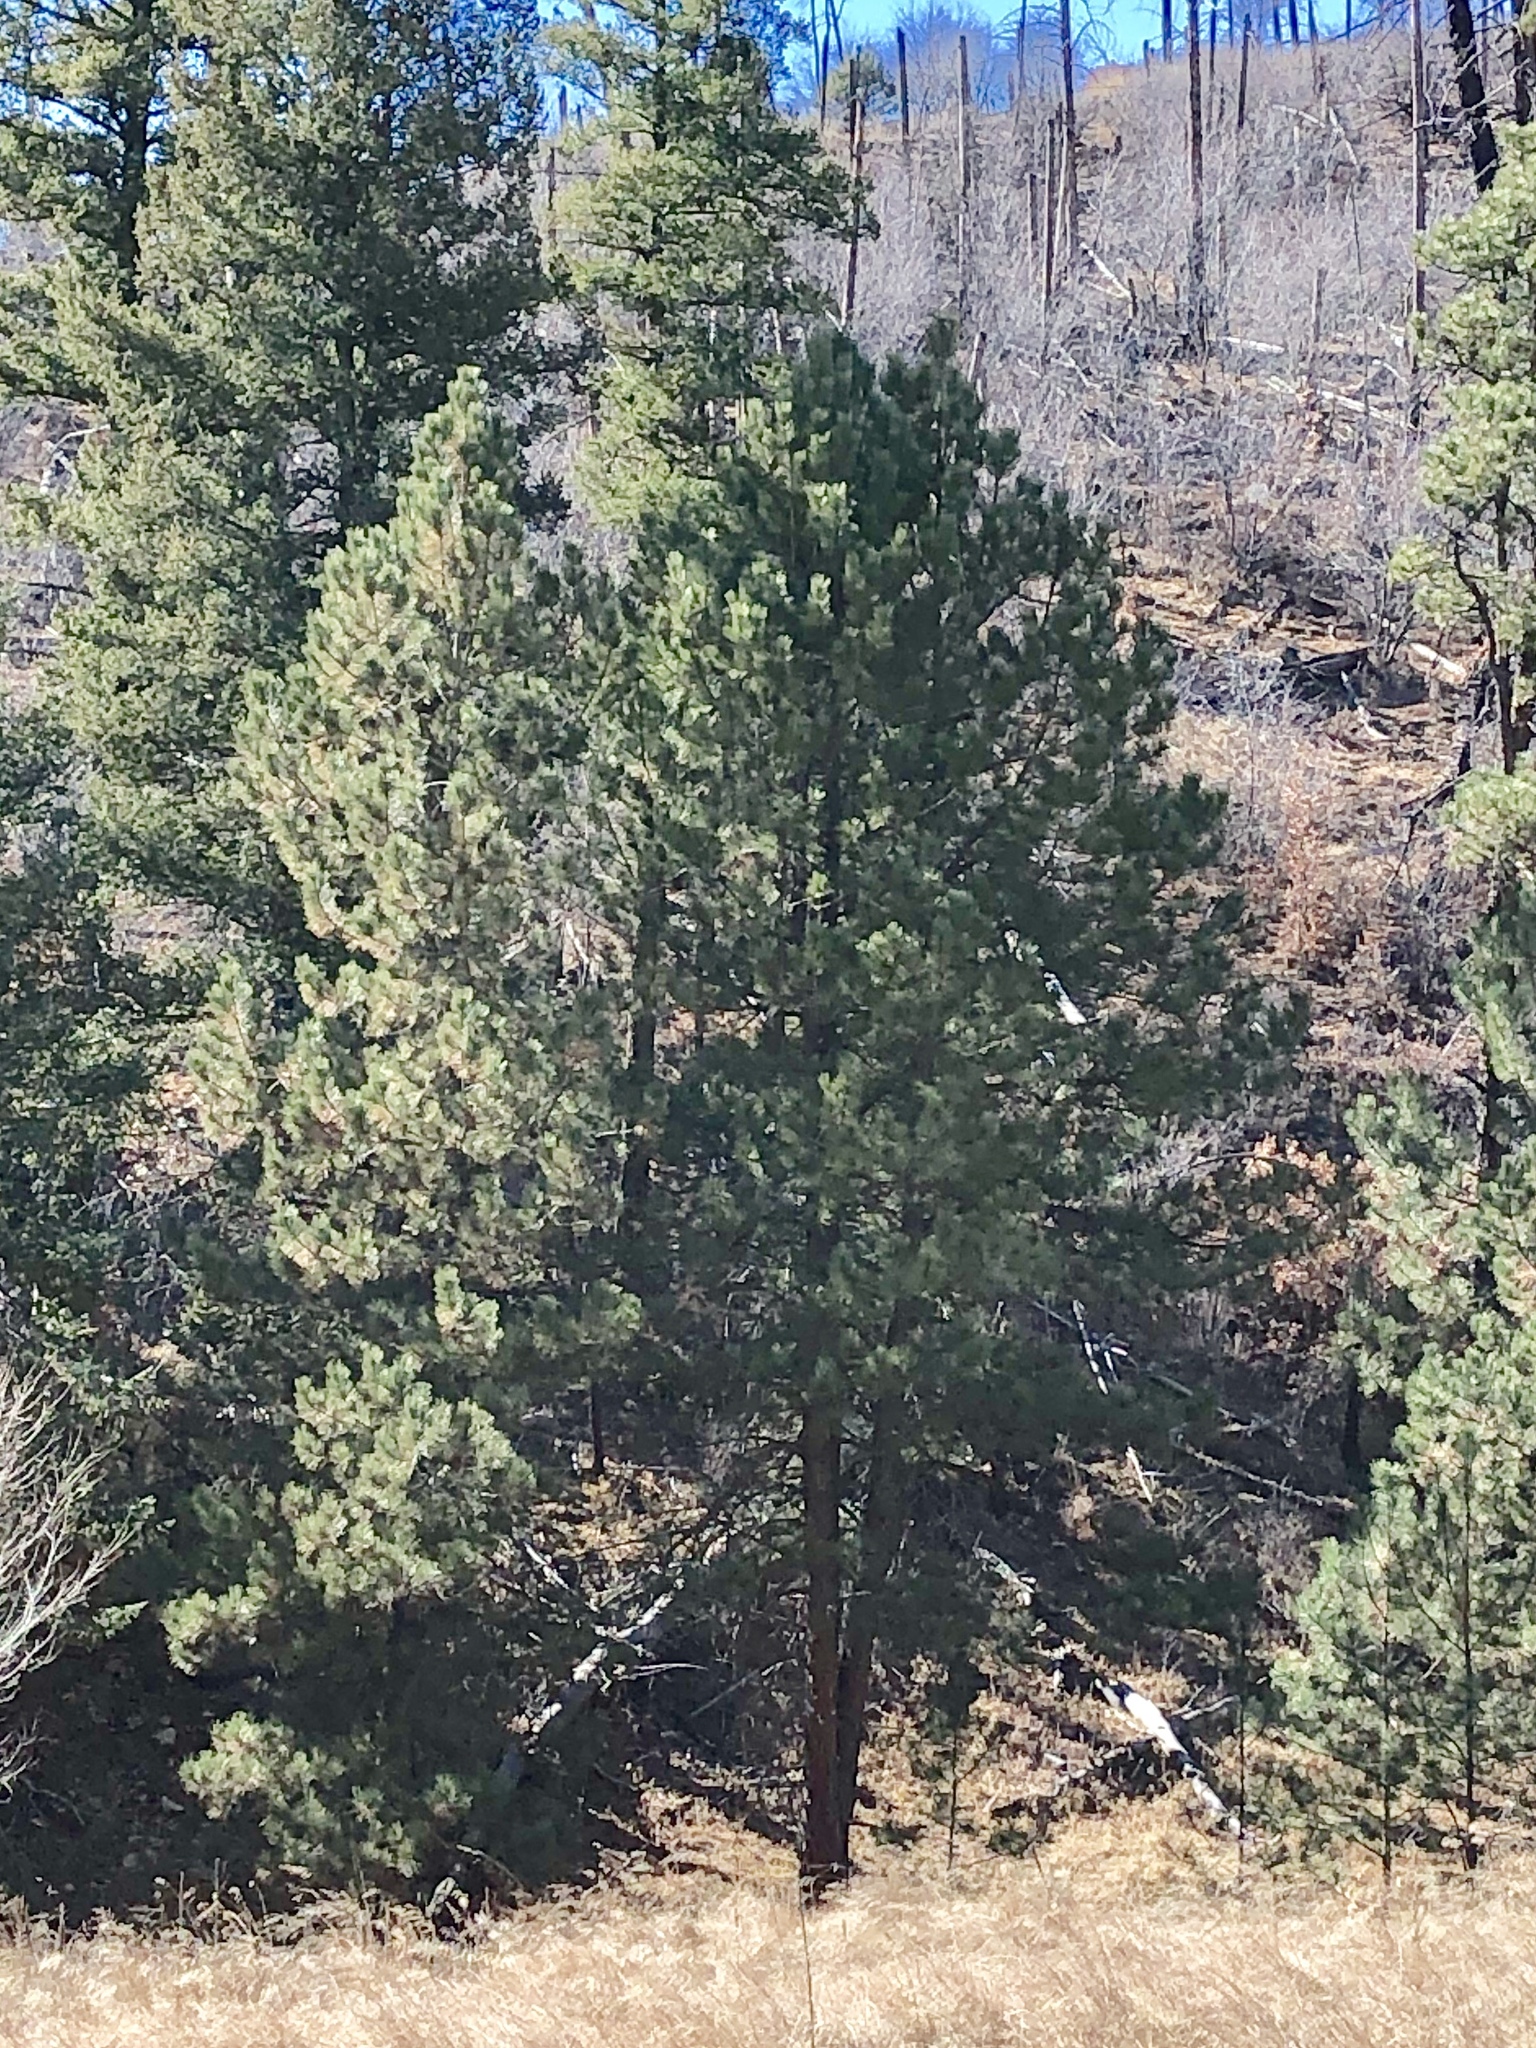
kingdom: Plantae
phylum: Tracheophyta
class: Pinopsida
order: Pinales
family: Pinaceae
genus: Pinus
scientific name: Pinus ponderosa
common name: Western yellow-pine
